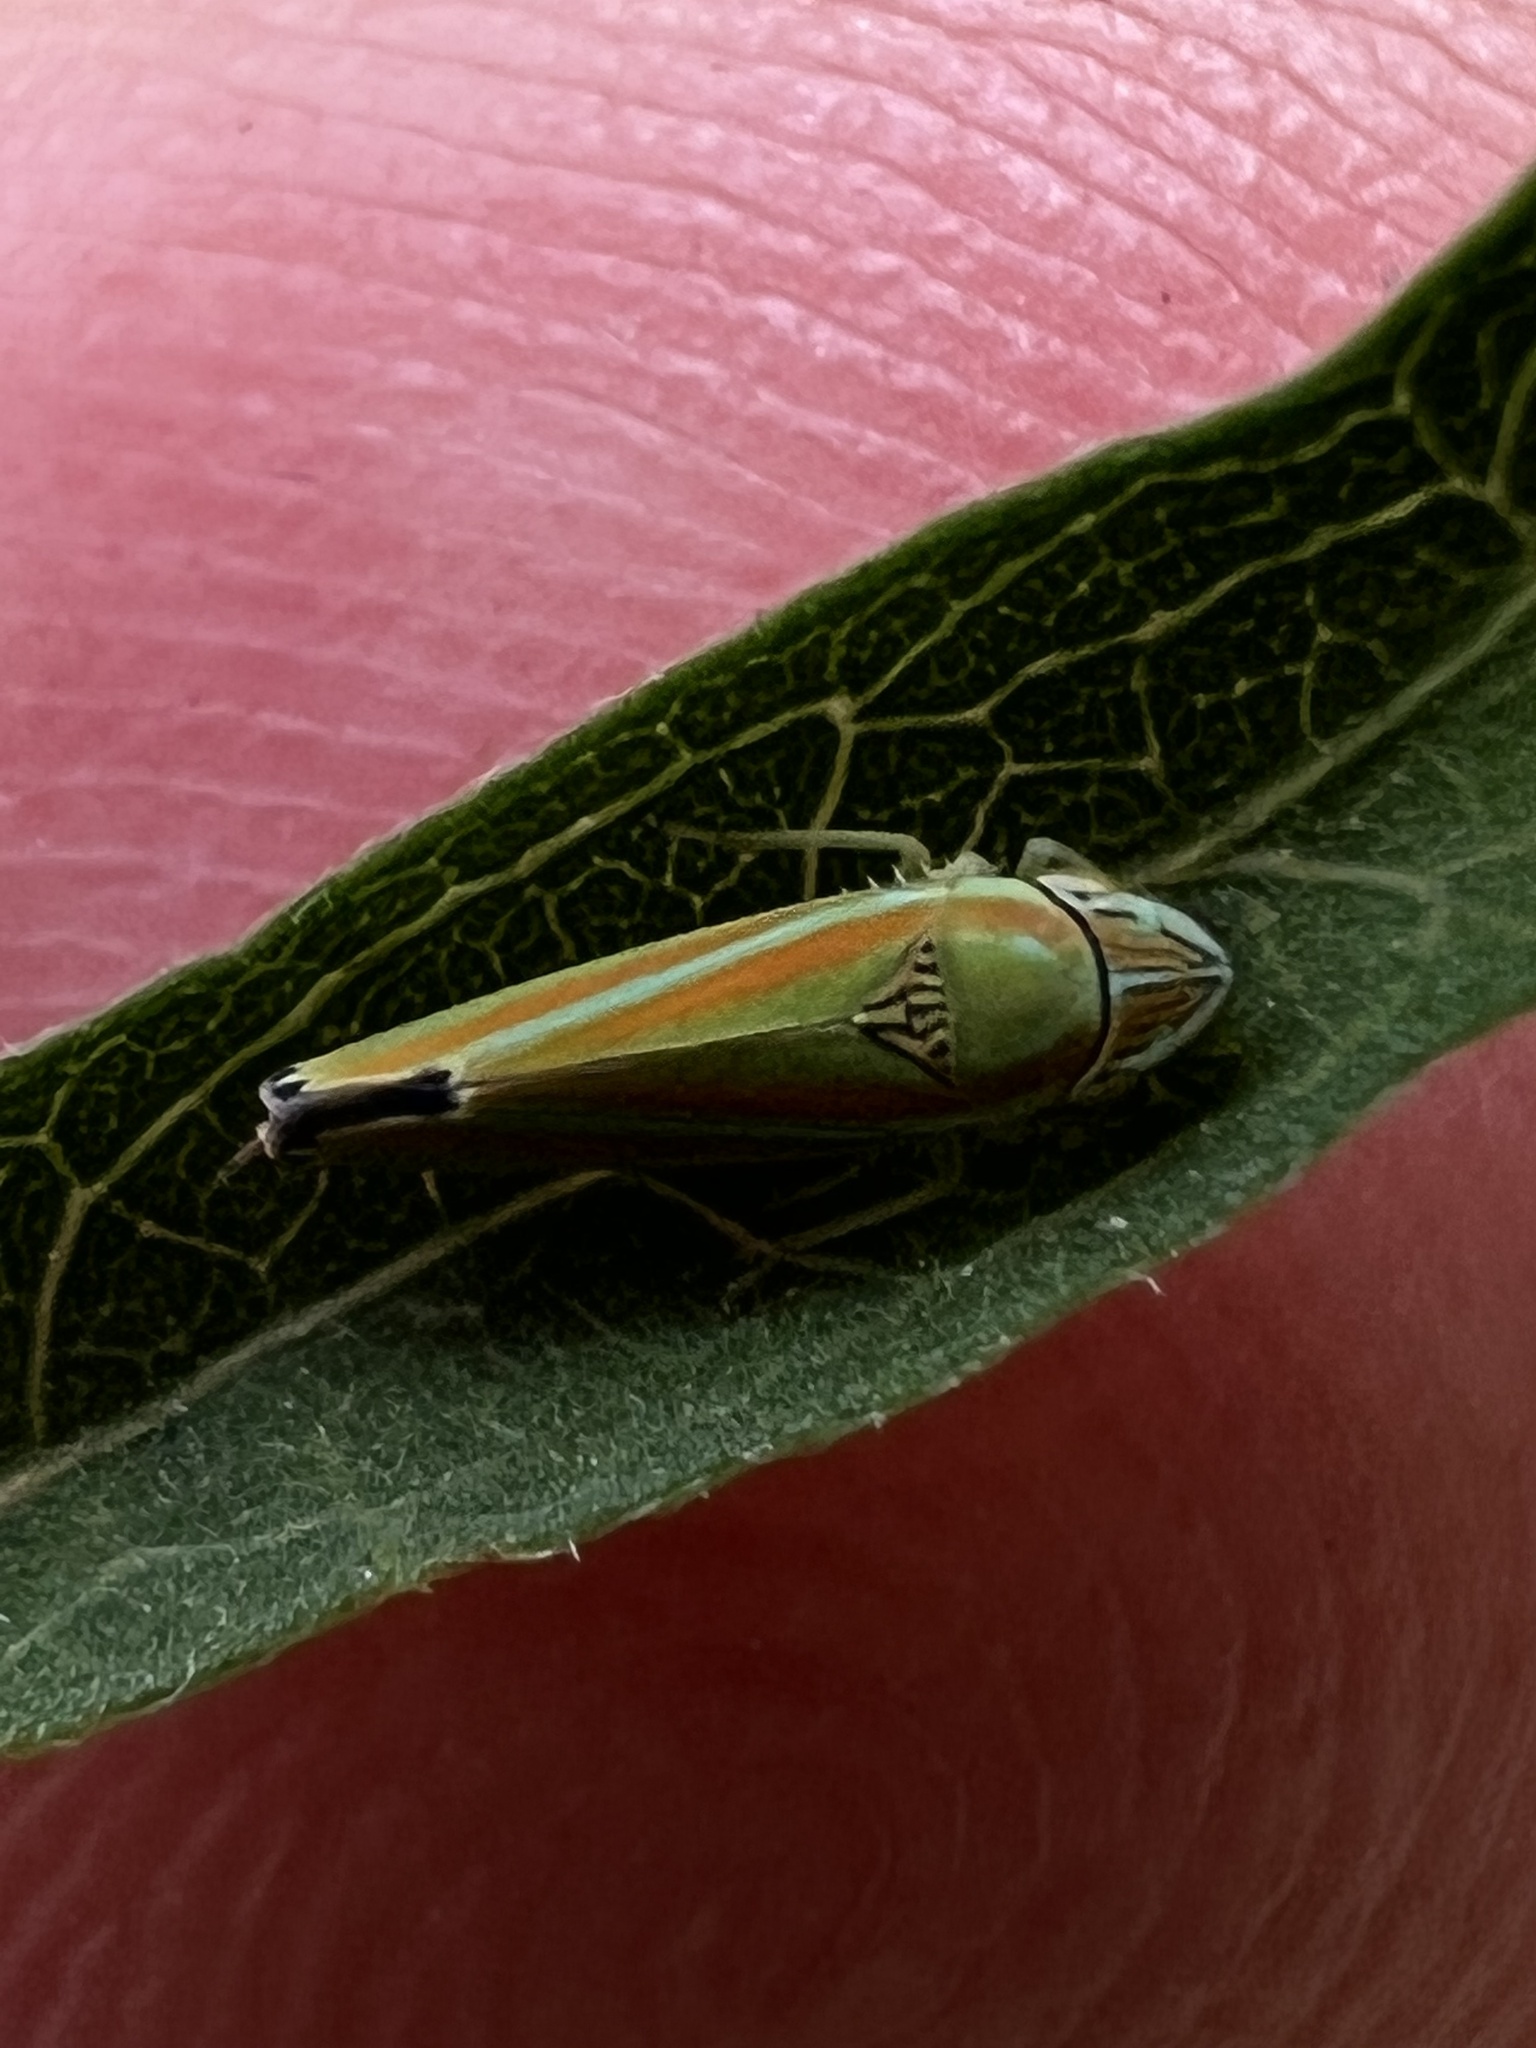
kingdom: Animalia
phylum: Arthropoda
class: Insecta
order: Hemiptera
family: Cicadellidae
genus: Graphocephala
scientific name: Graphocephala versuta
